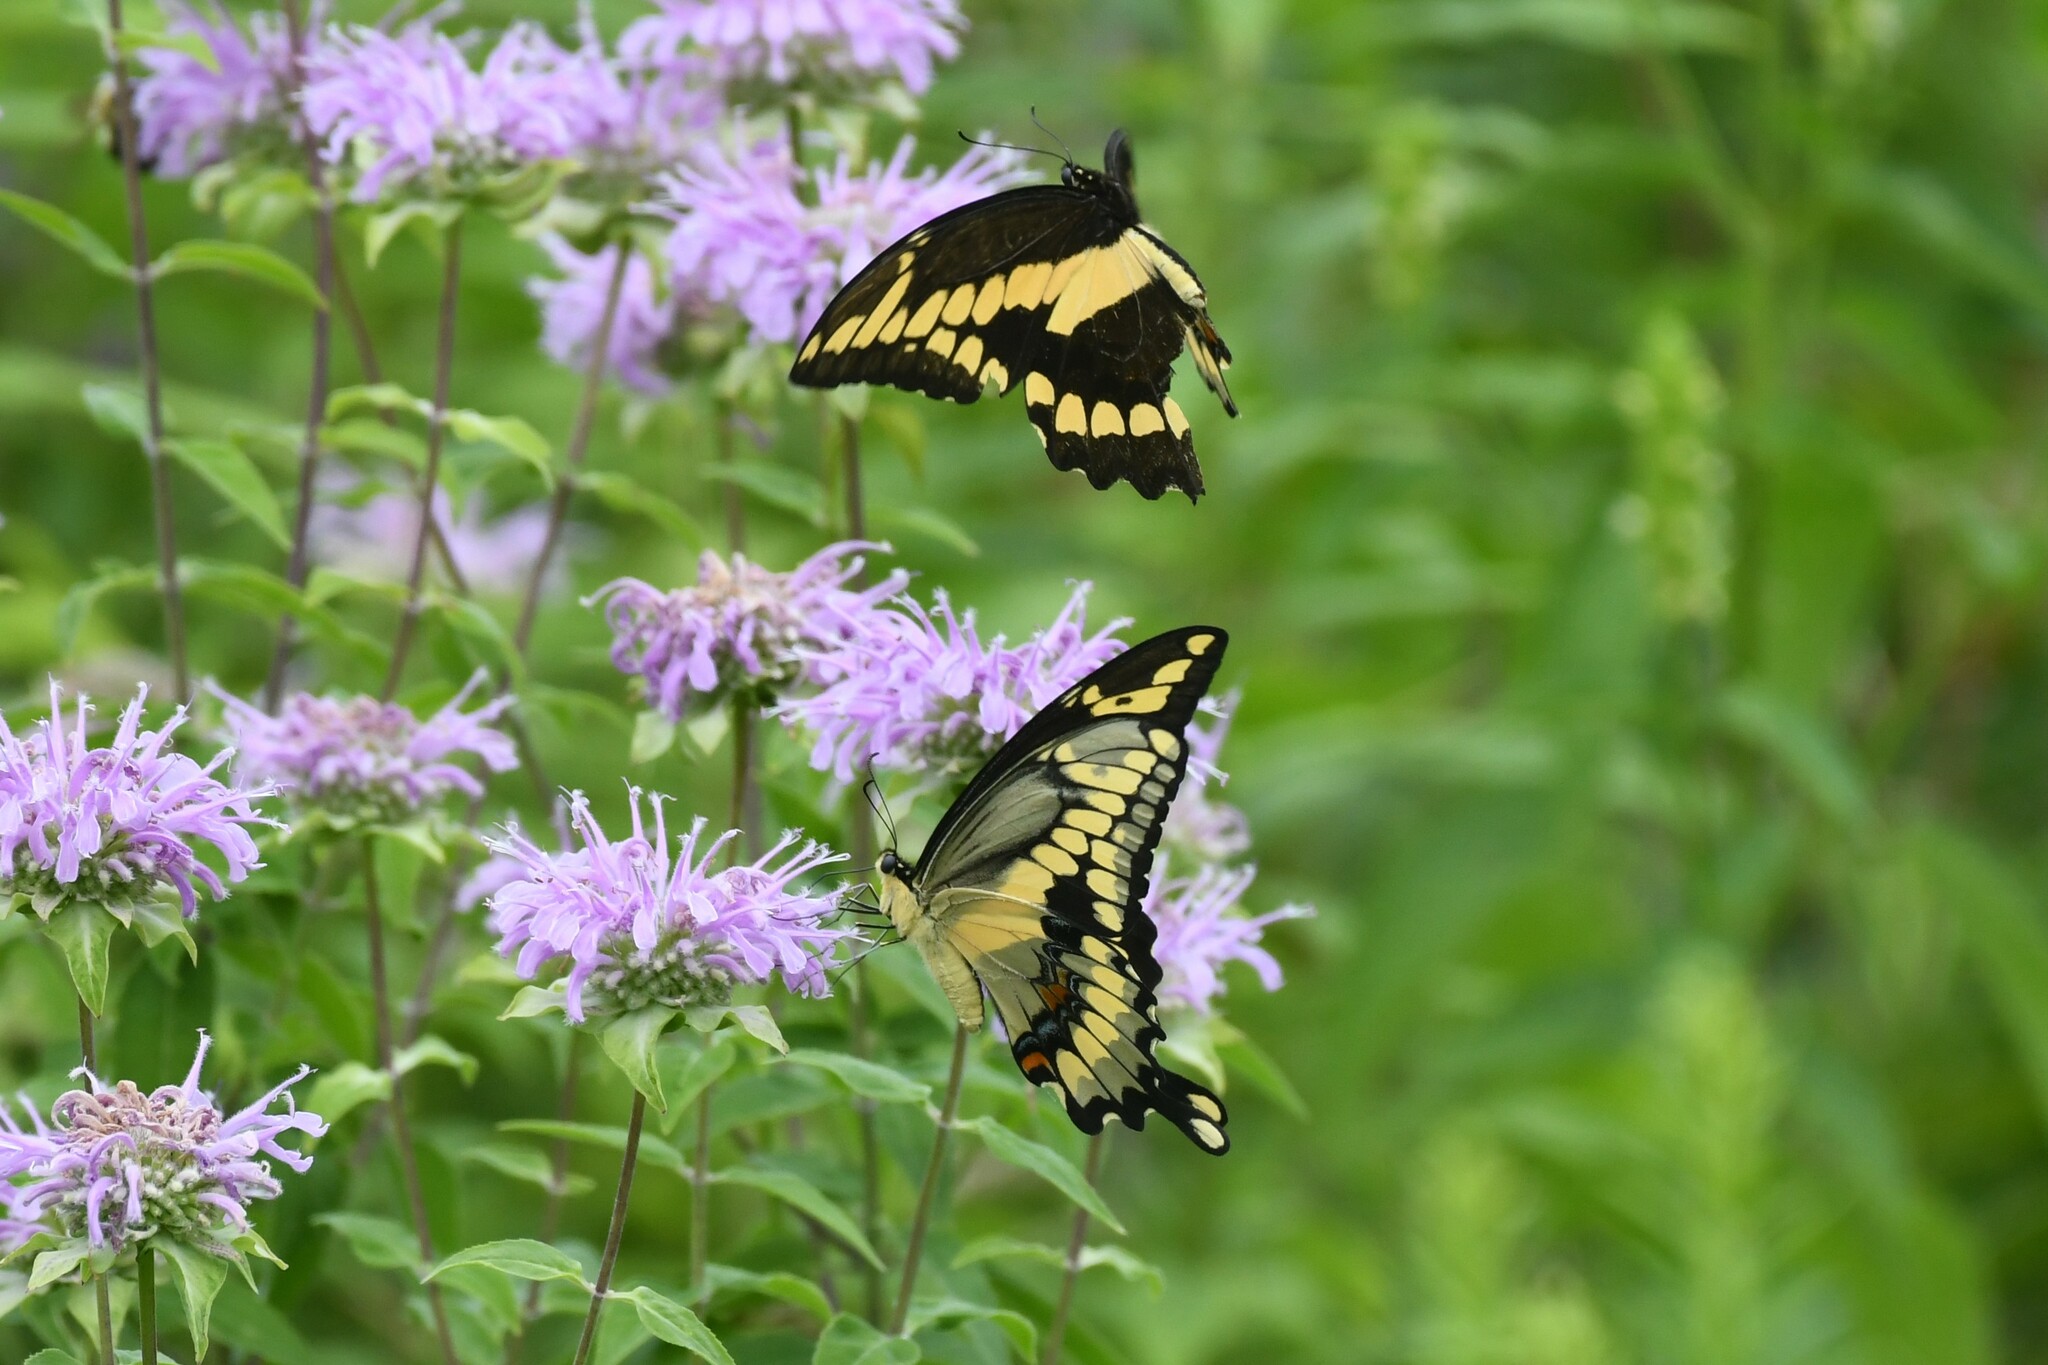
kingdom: Animalia
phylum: Arthropoda
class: Insecta
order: Lepidoptera
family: Papilionidae
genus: Papilio
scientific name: Papilio cresphontes
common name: Giant swallowtail
